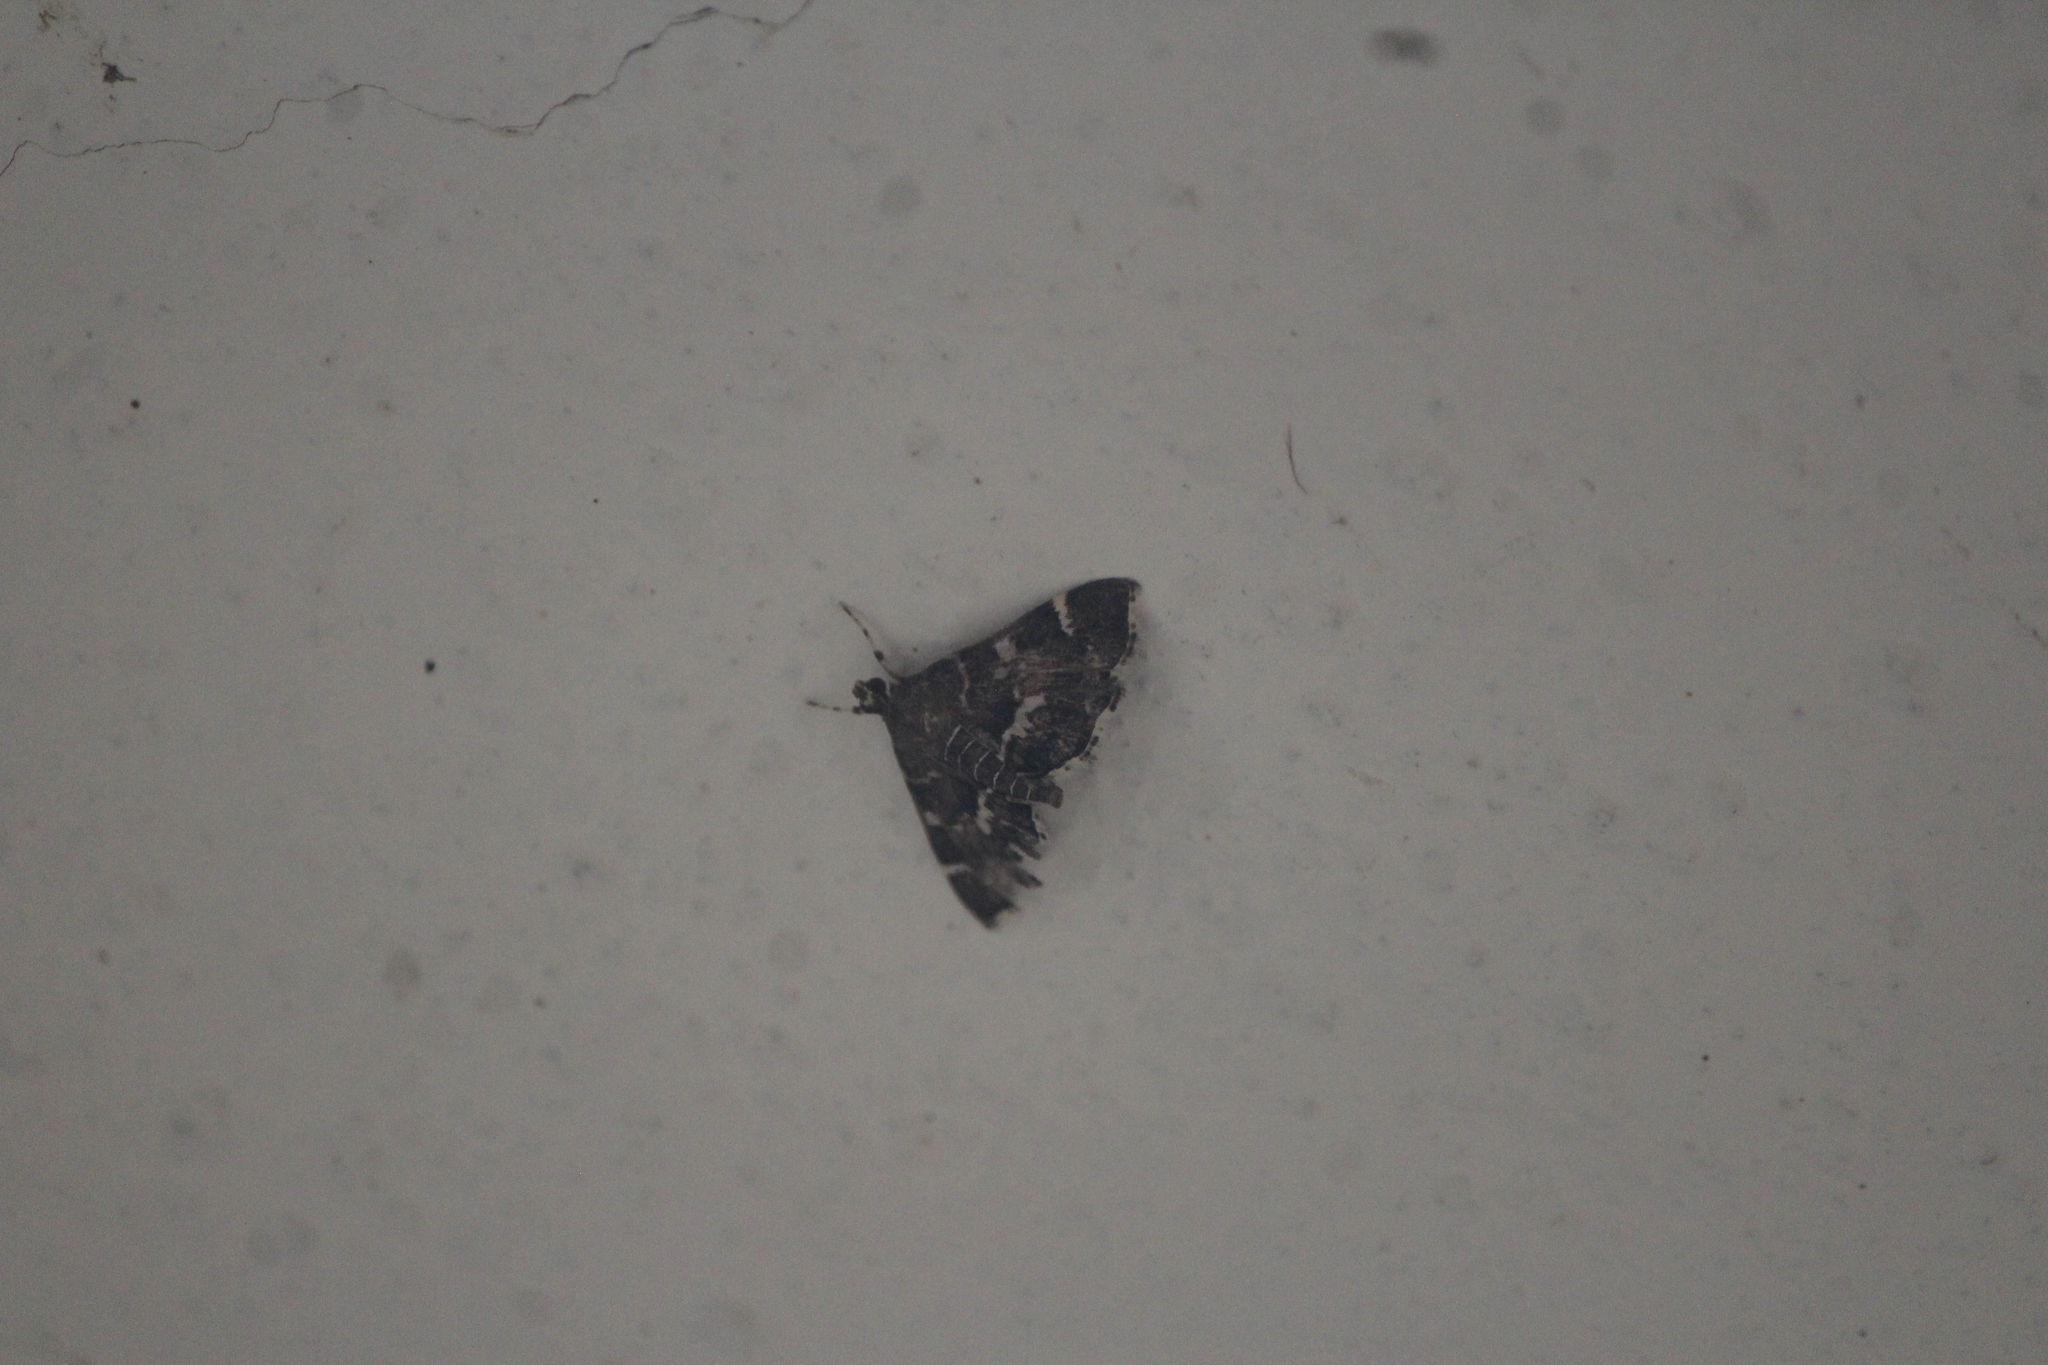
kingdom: Animalia
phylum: Arthropoda
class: Insecta
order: Lepidoptera
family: Crambidae
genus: Hymenia
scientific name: Hymenia perspectalis
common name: Spotted beet webworm
